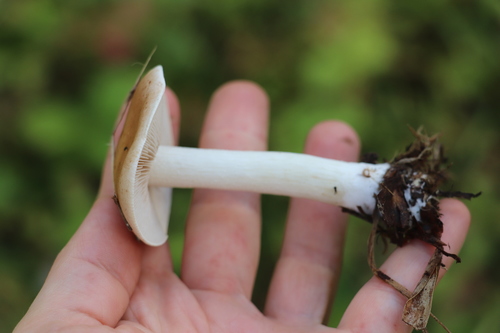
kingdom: Fungi
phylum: Basidiomycota
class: Agaricomycetes
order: Agaricales
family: Hymenogastraceae
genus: Hebeloma
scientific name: Hebeloma leucosarx
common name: Birch poisonpie
